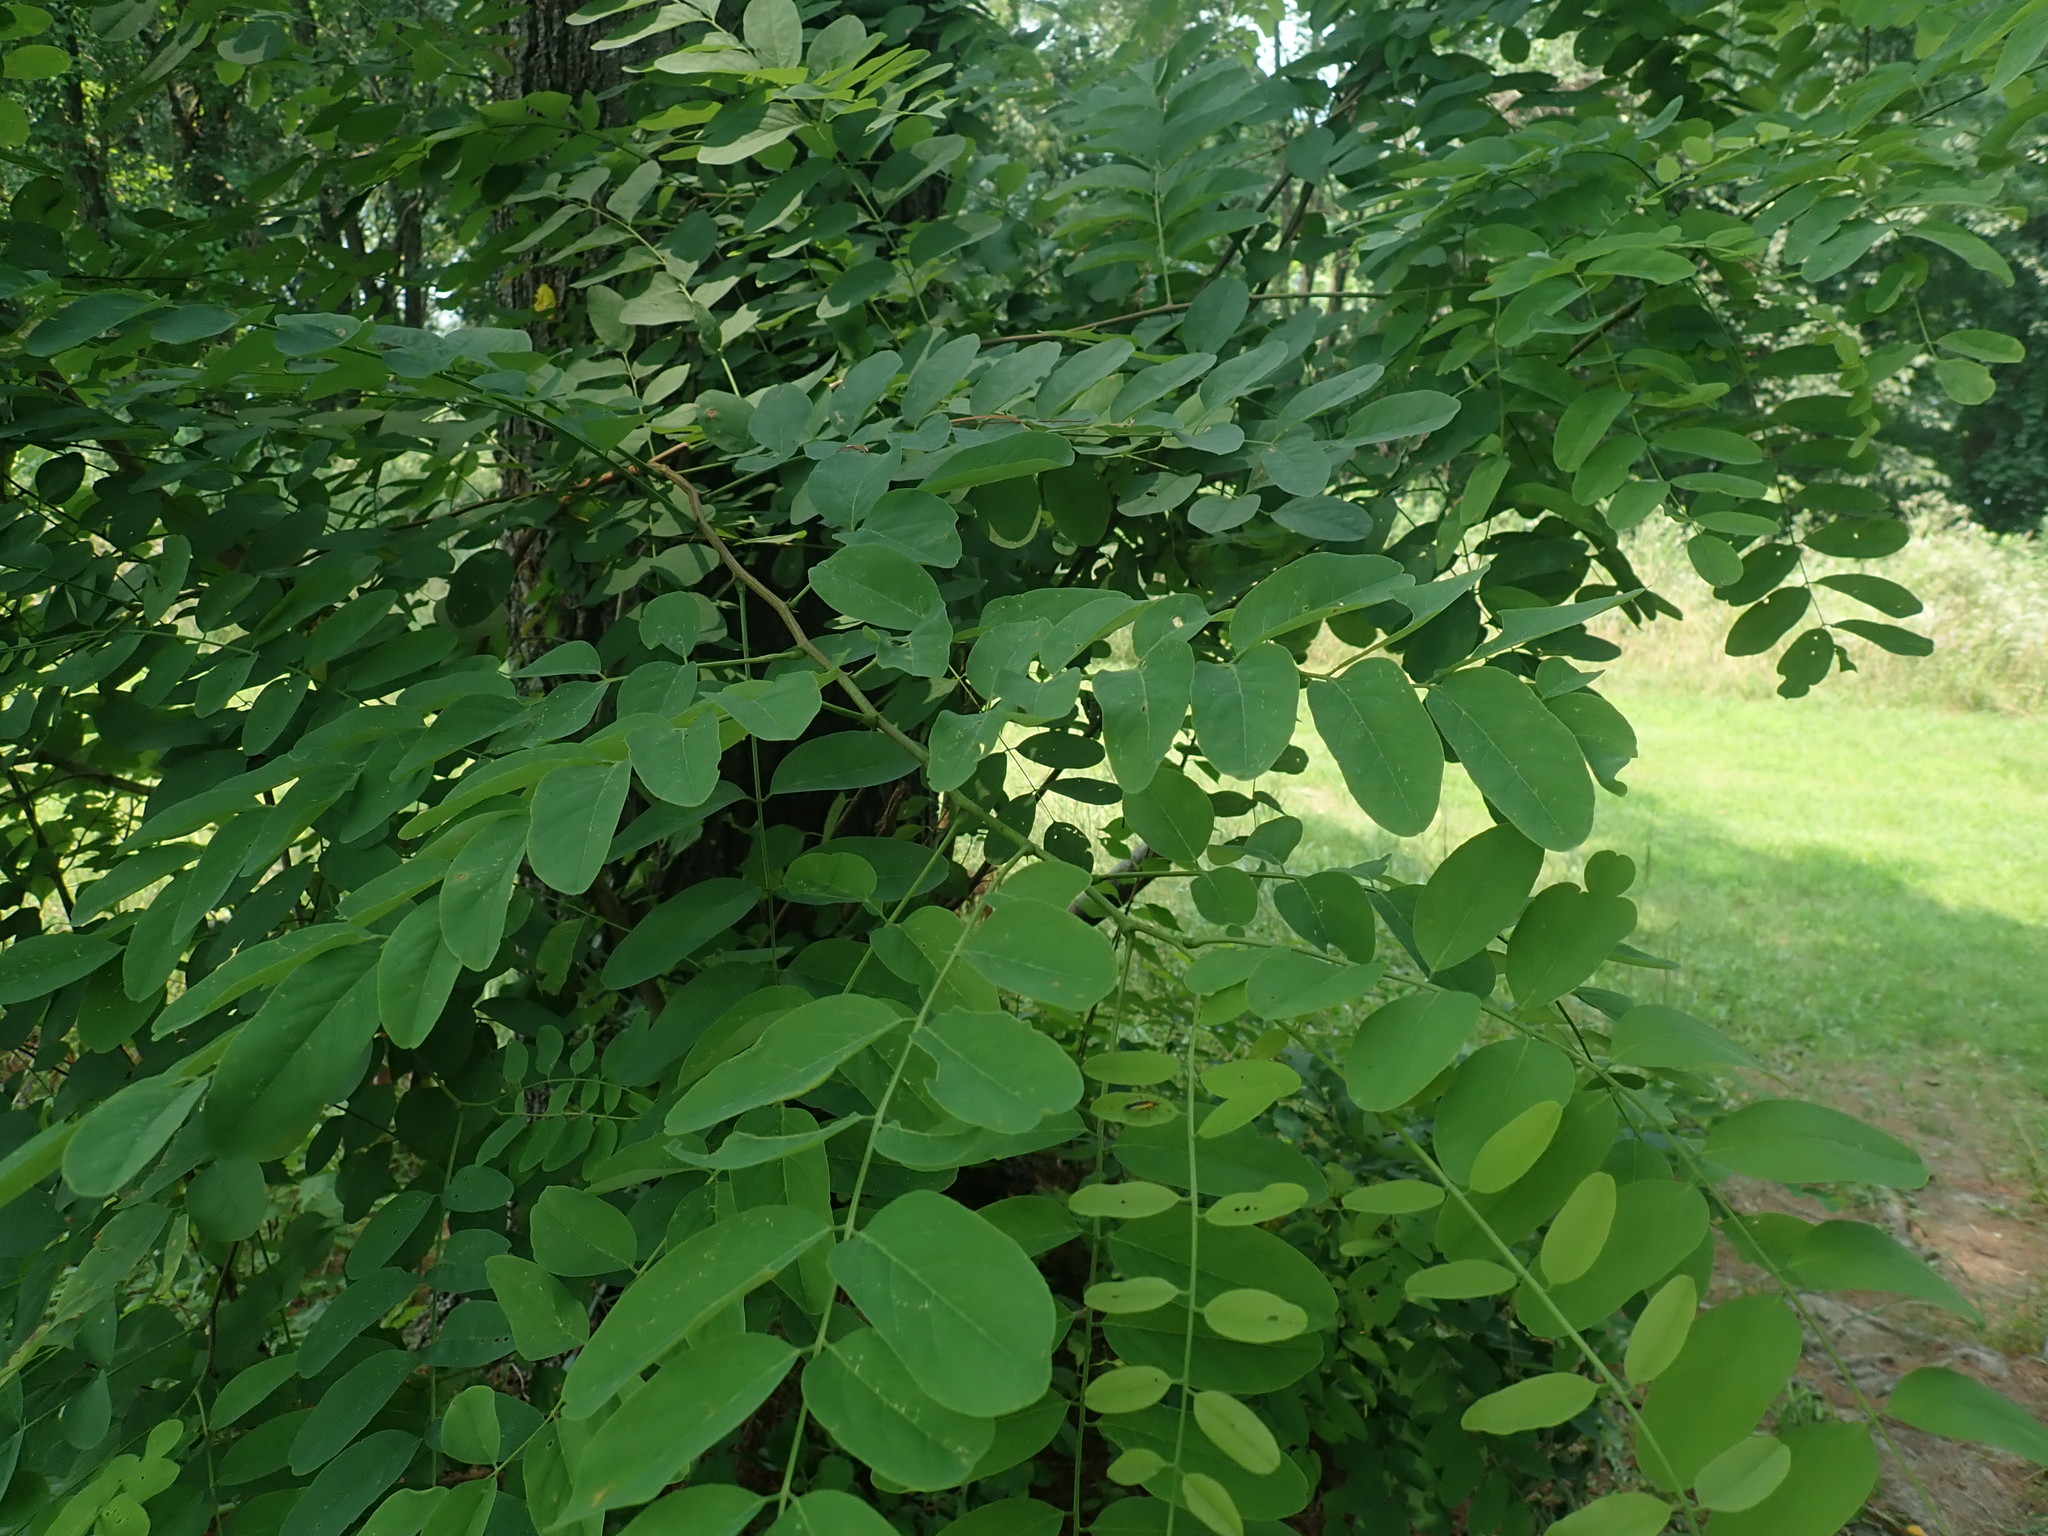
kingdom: Plantae
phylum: Tracheophyta
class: Magnoliopsida
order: Fabales
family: Fabaceae
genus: Robinia
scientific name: Robinia pseudoacacia
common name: Black locust
